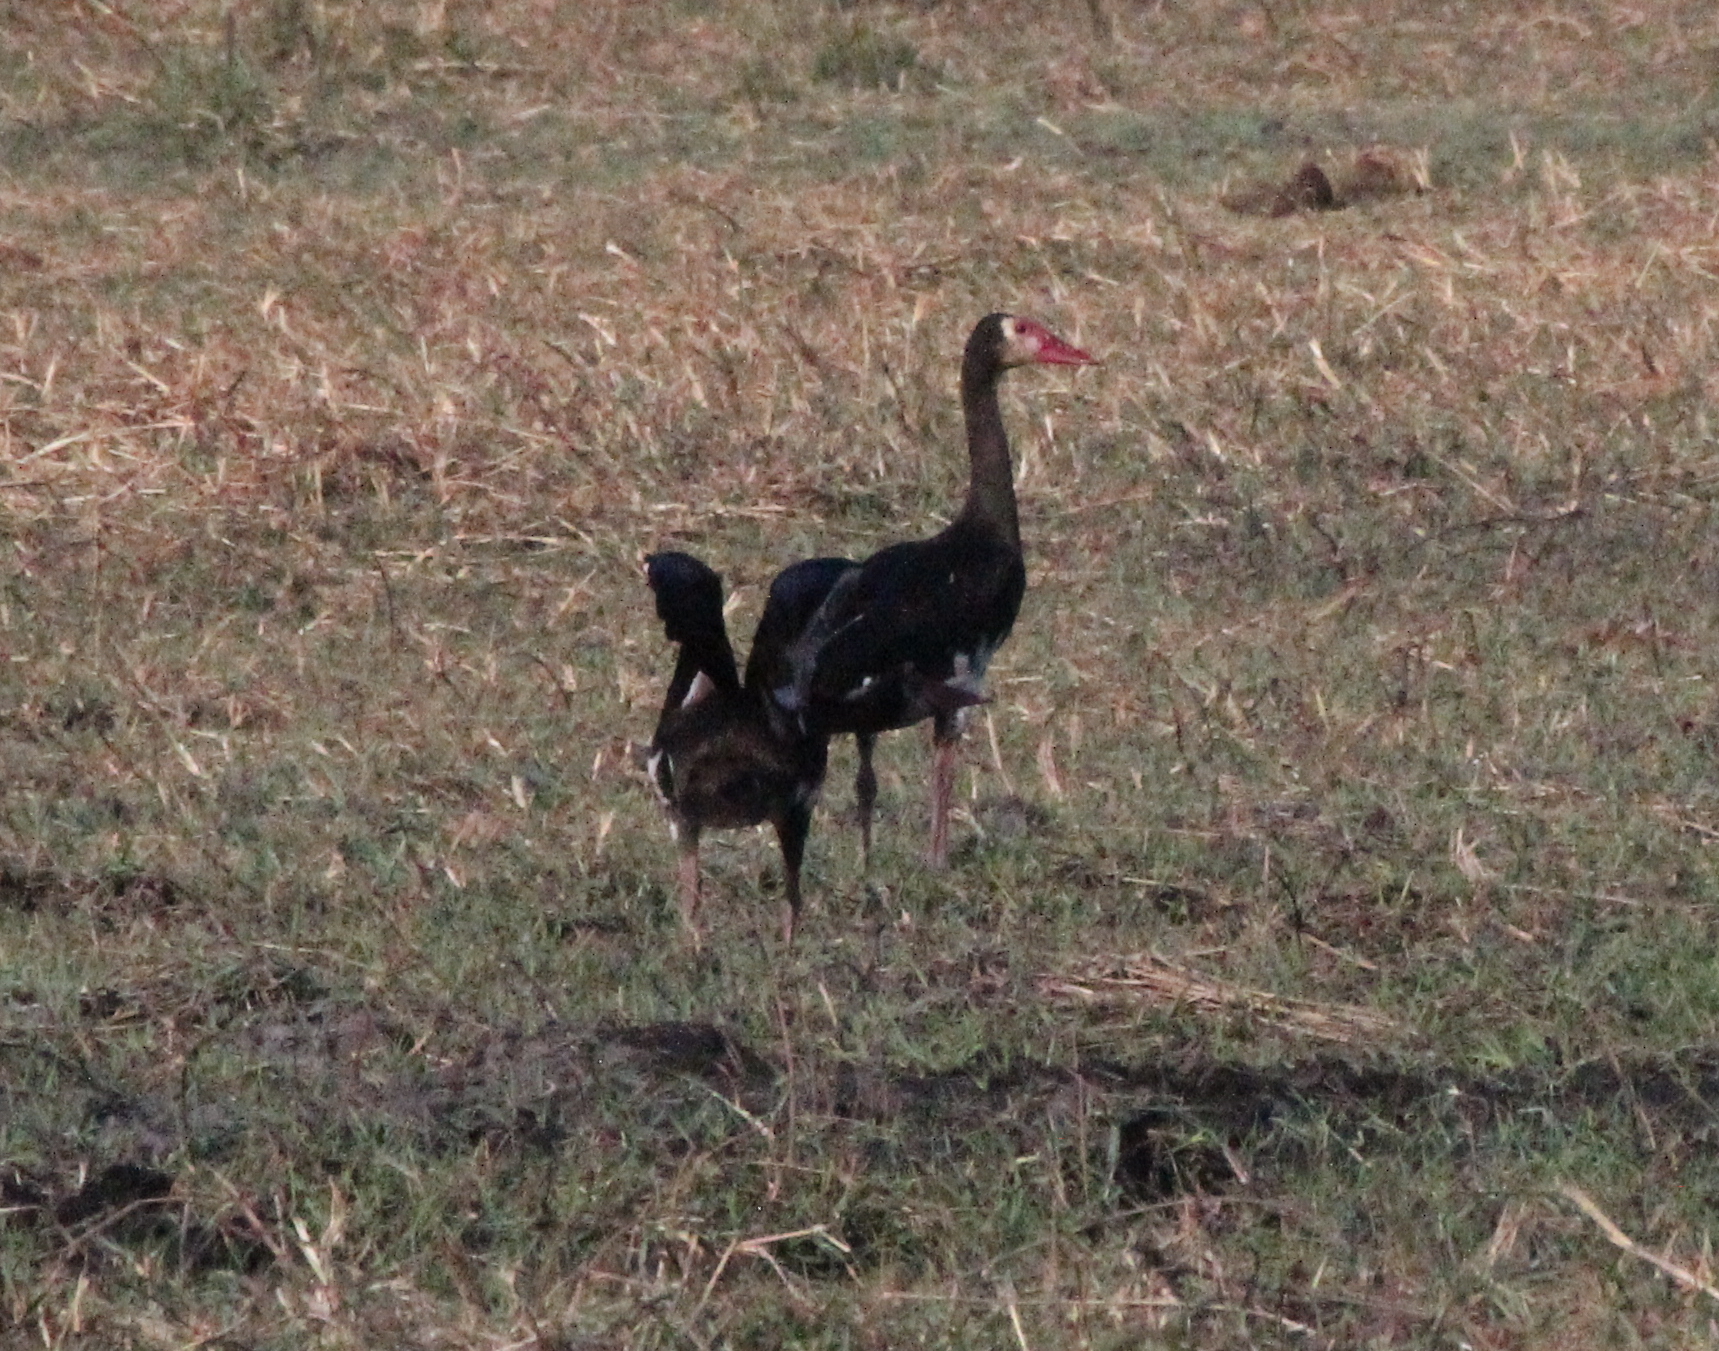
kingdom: Animalia
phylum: Chordata
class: Aves
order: Anseriformes
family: Anatidae
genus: Plectropterus
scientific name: Plectropterus gambensis
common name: Spur-winged goose
